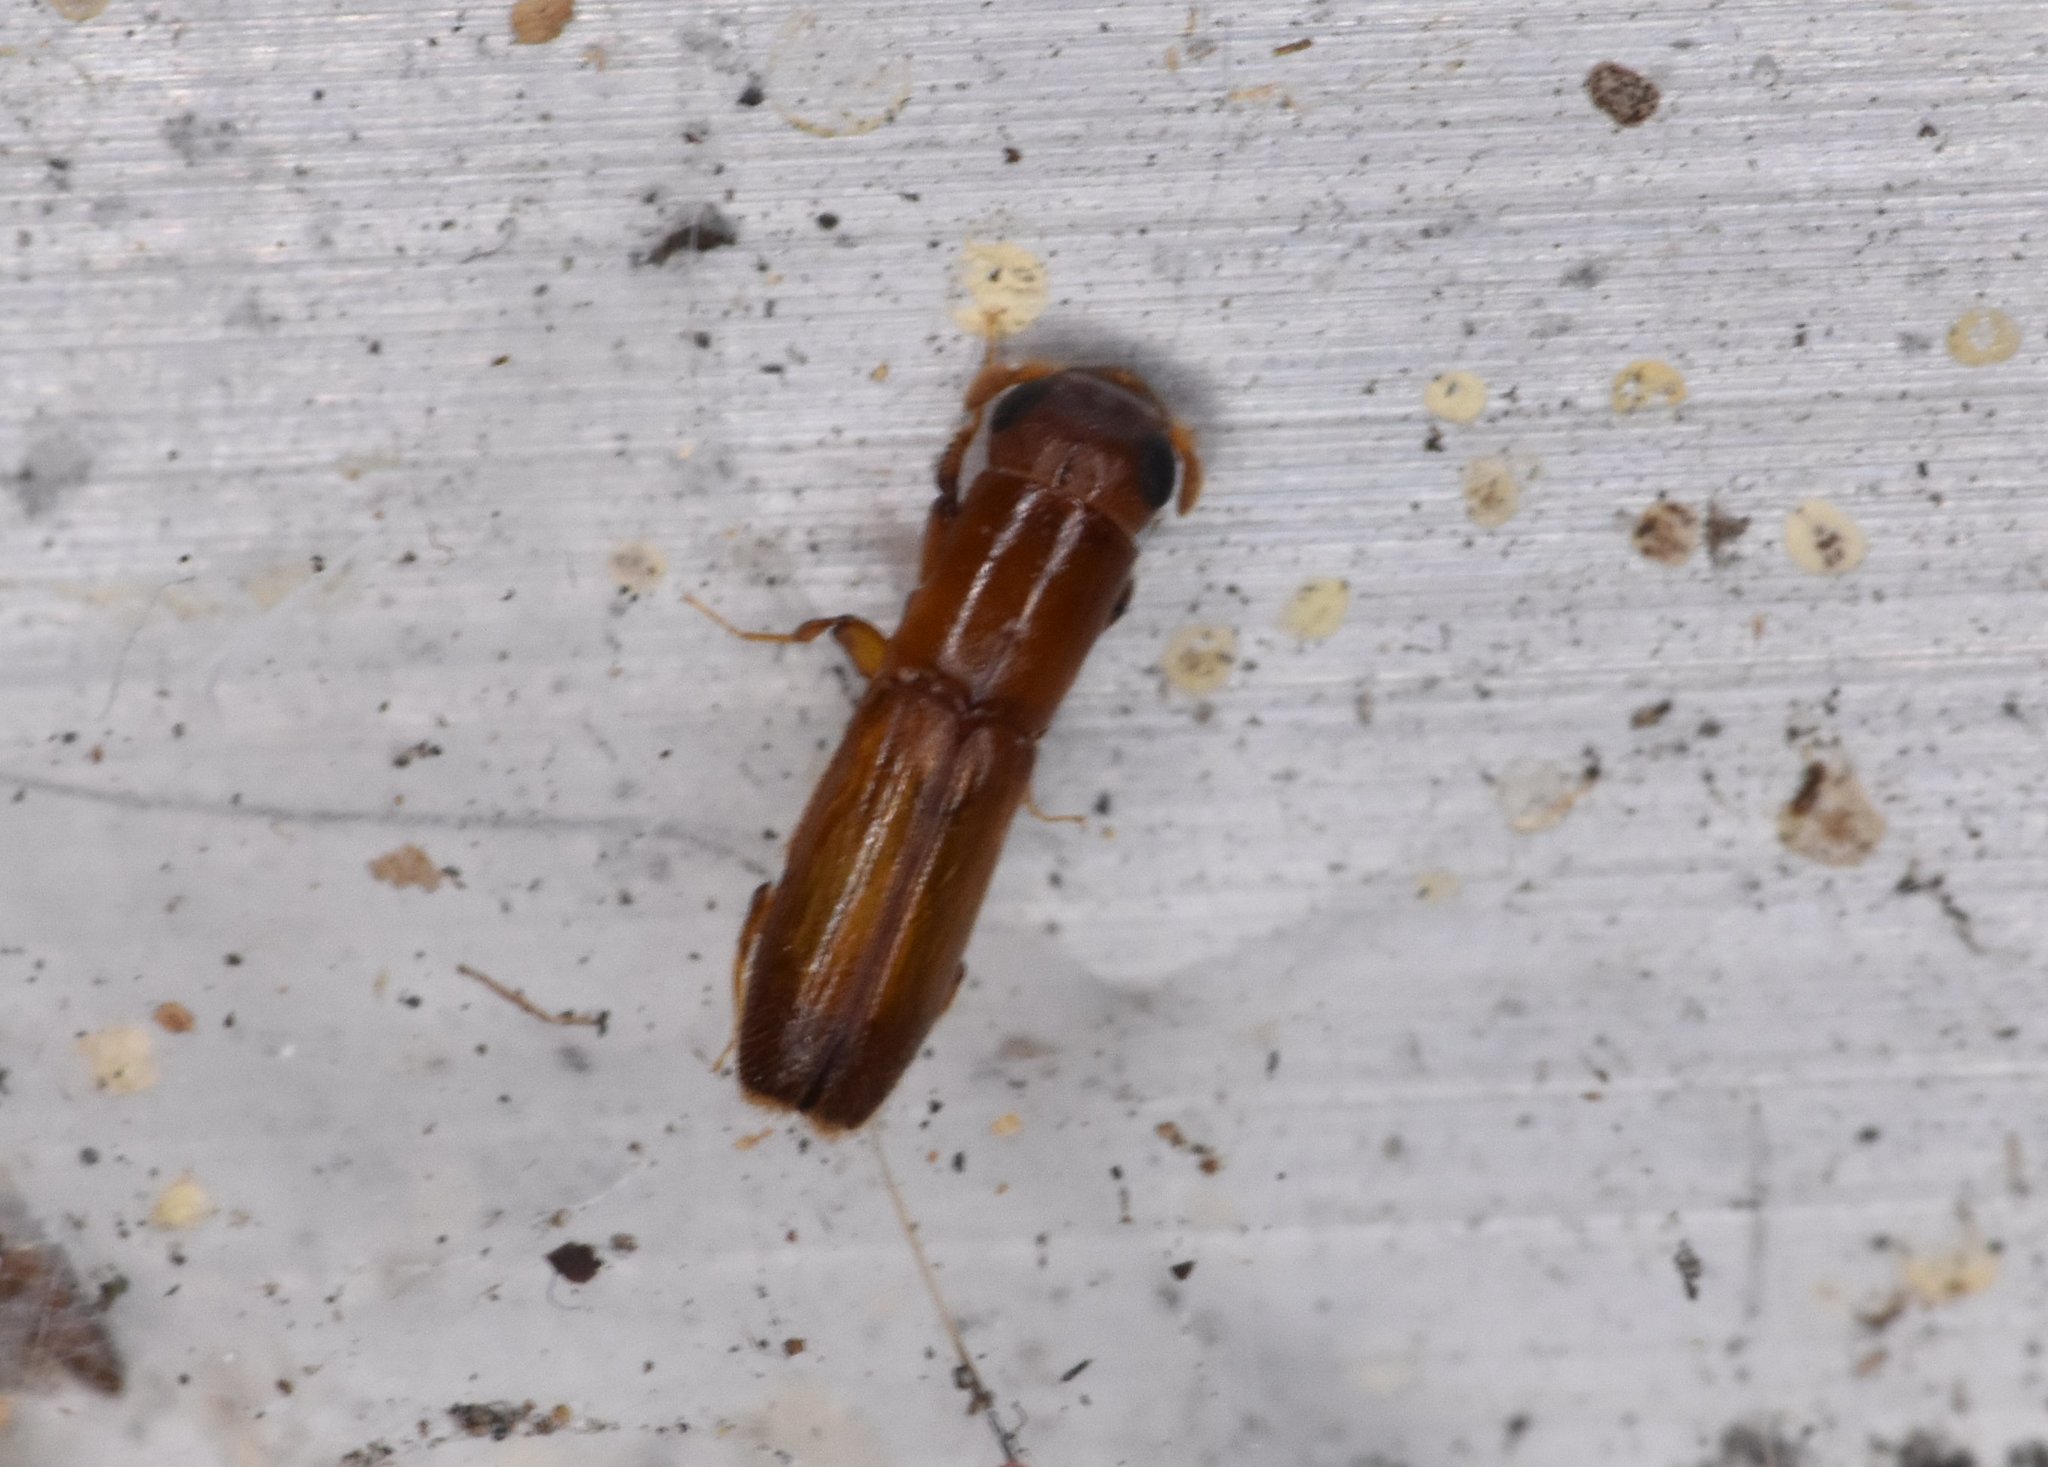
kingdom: Animalia
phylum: Arthropoda
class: Insecta
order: Coleoptera
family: Curculionidae
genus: Euplatypus
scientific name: Euplatypus compositus
